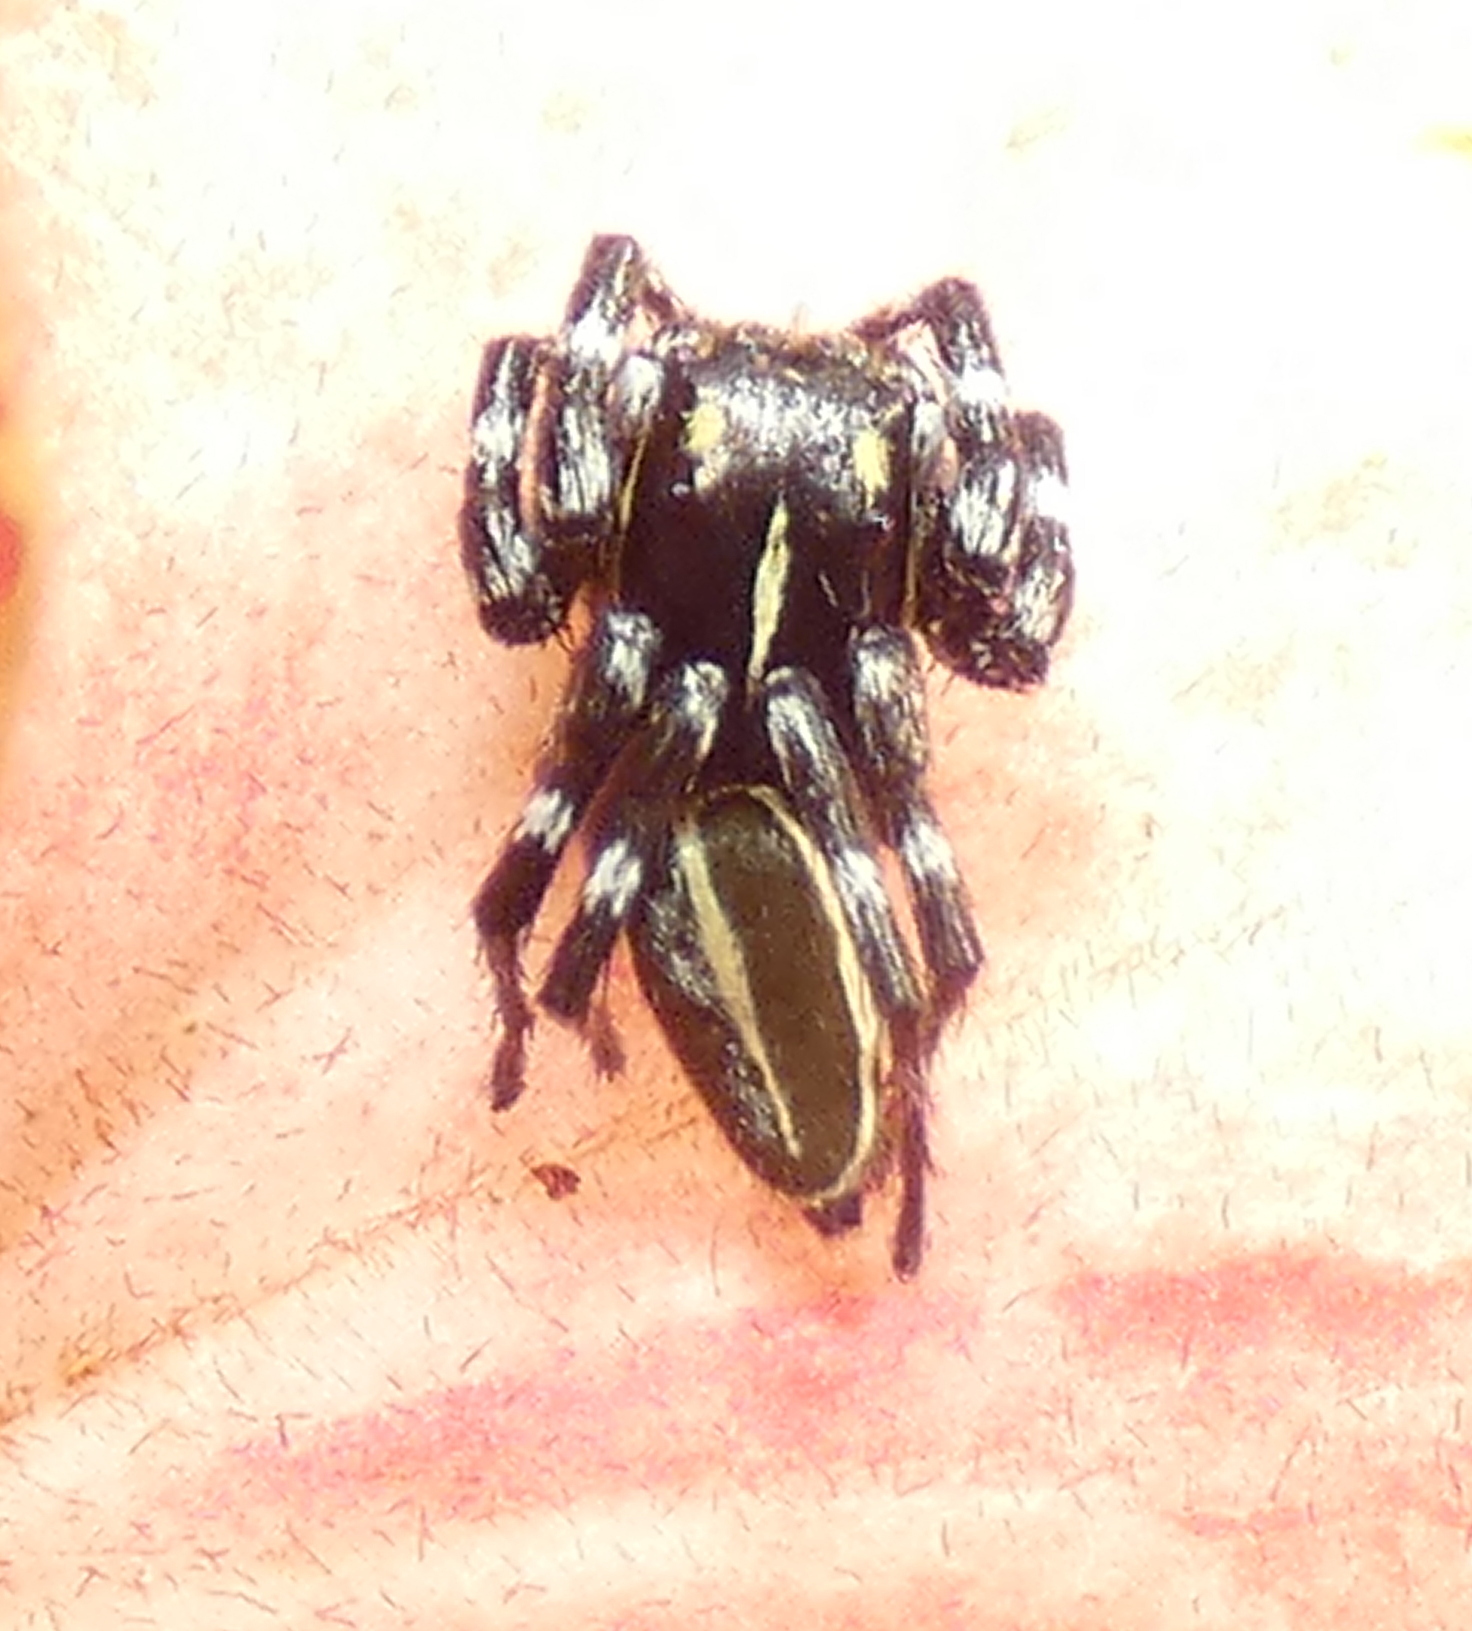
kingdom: Animalia
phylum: Arthropoda
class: Arachnida
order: Araneae
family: Salticidae
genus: Phiale
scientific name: Phiale crocea
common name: Jumping spiders
